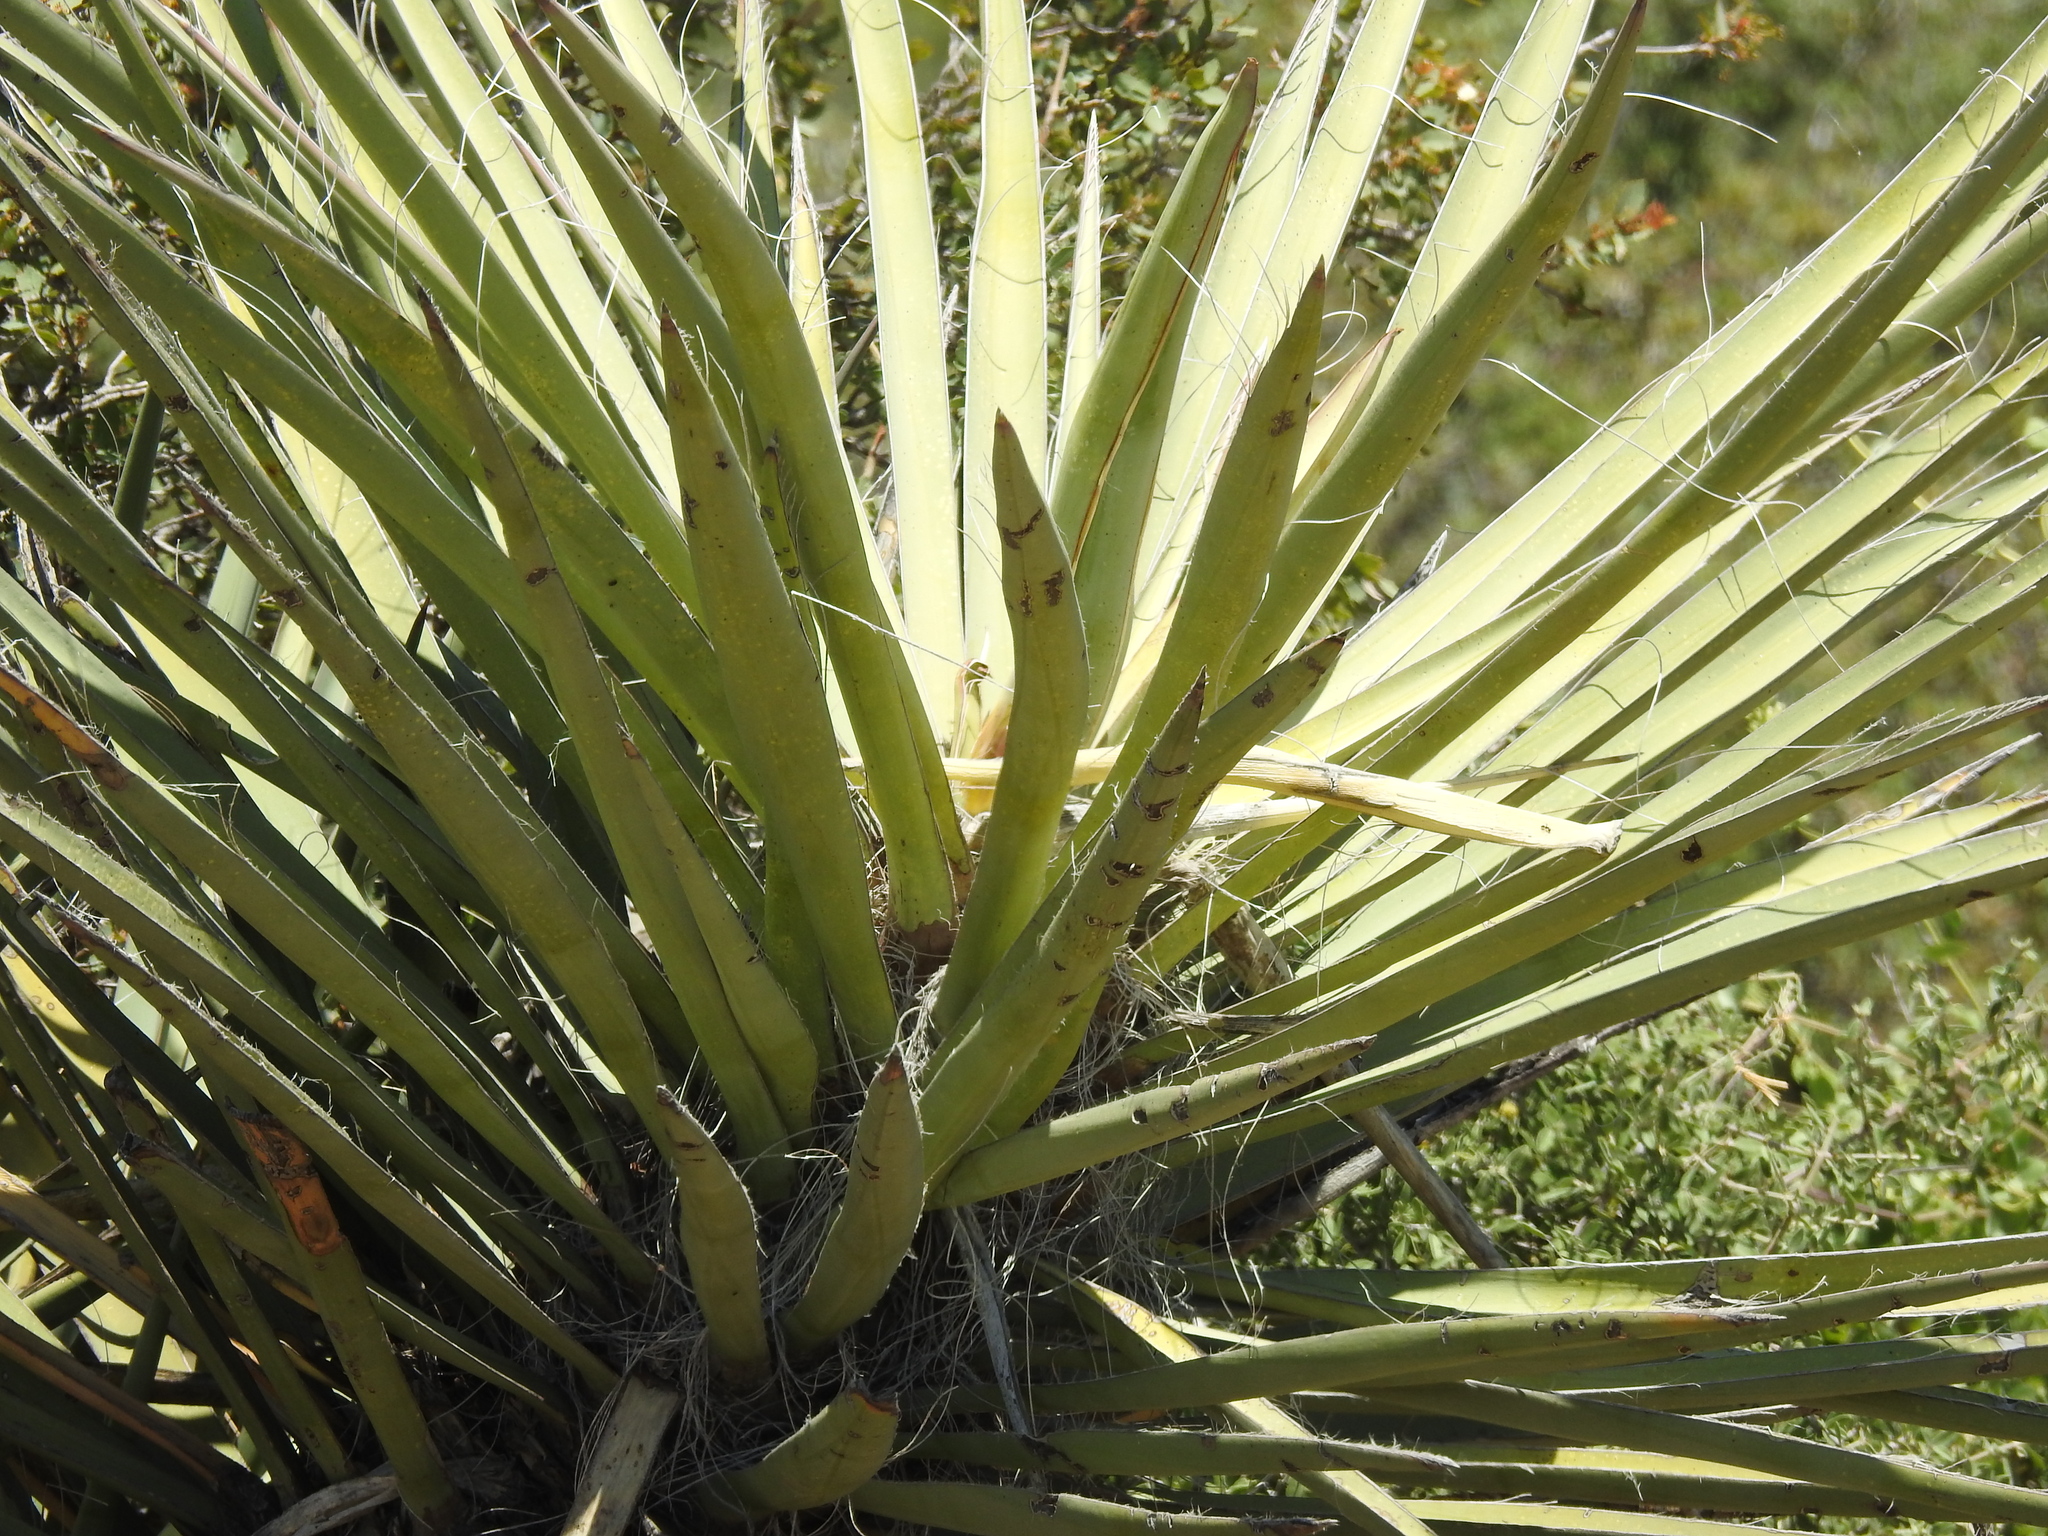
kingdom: Plantae
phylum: Tracheophyta
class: Liliopsida
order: Asparagales
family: Asparagaceae
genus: Yucca
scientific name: Yucca baccata
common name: Banana yucca
